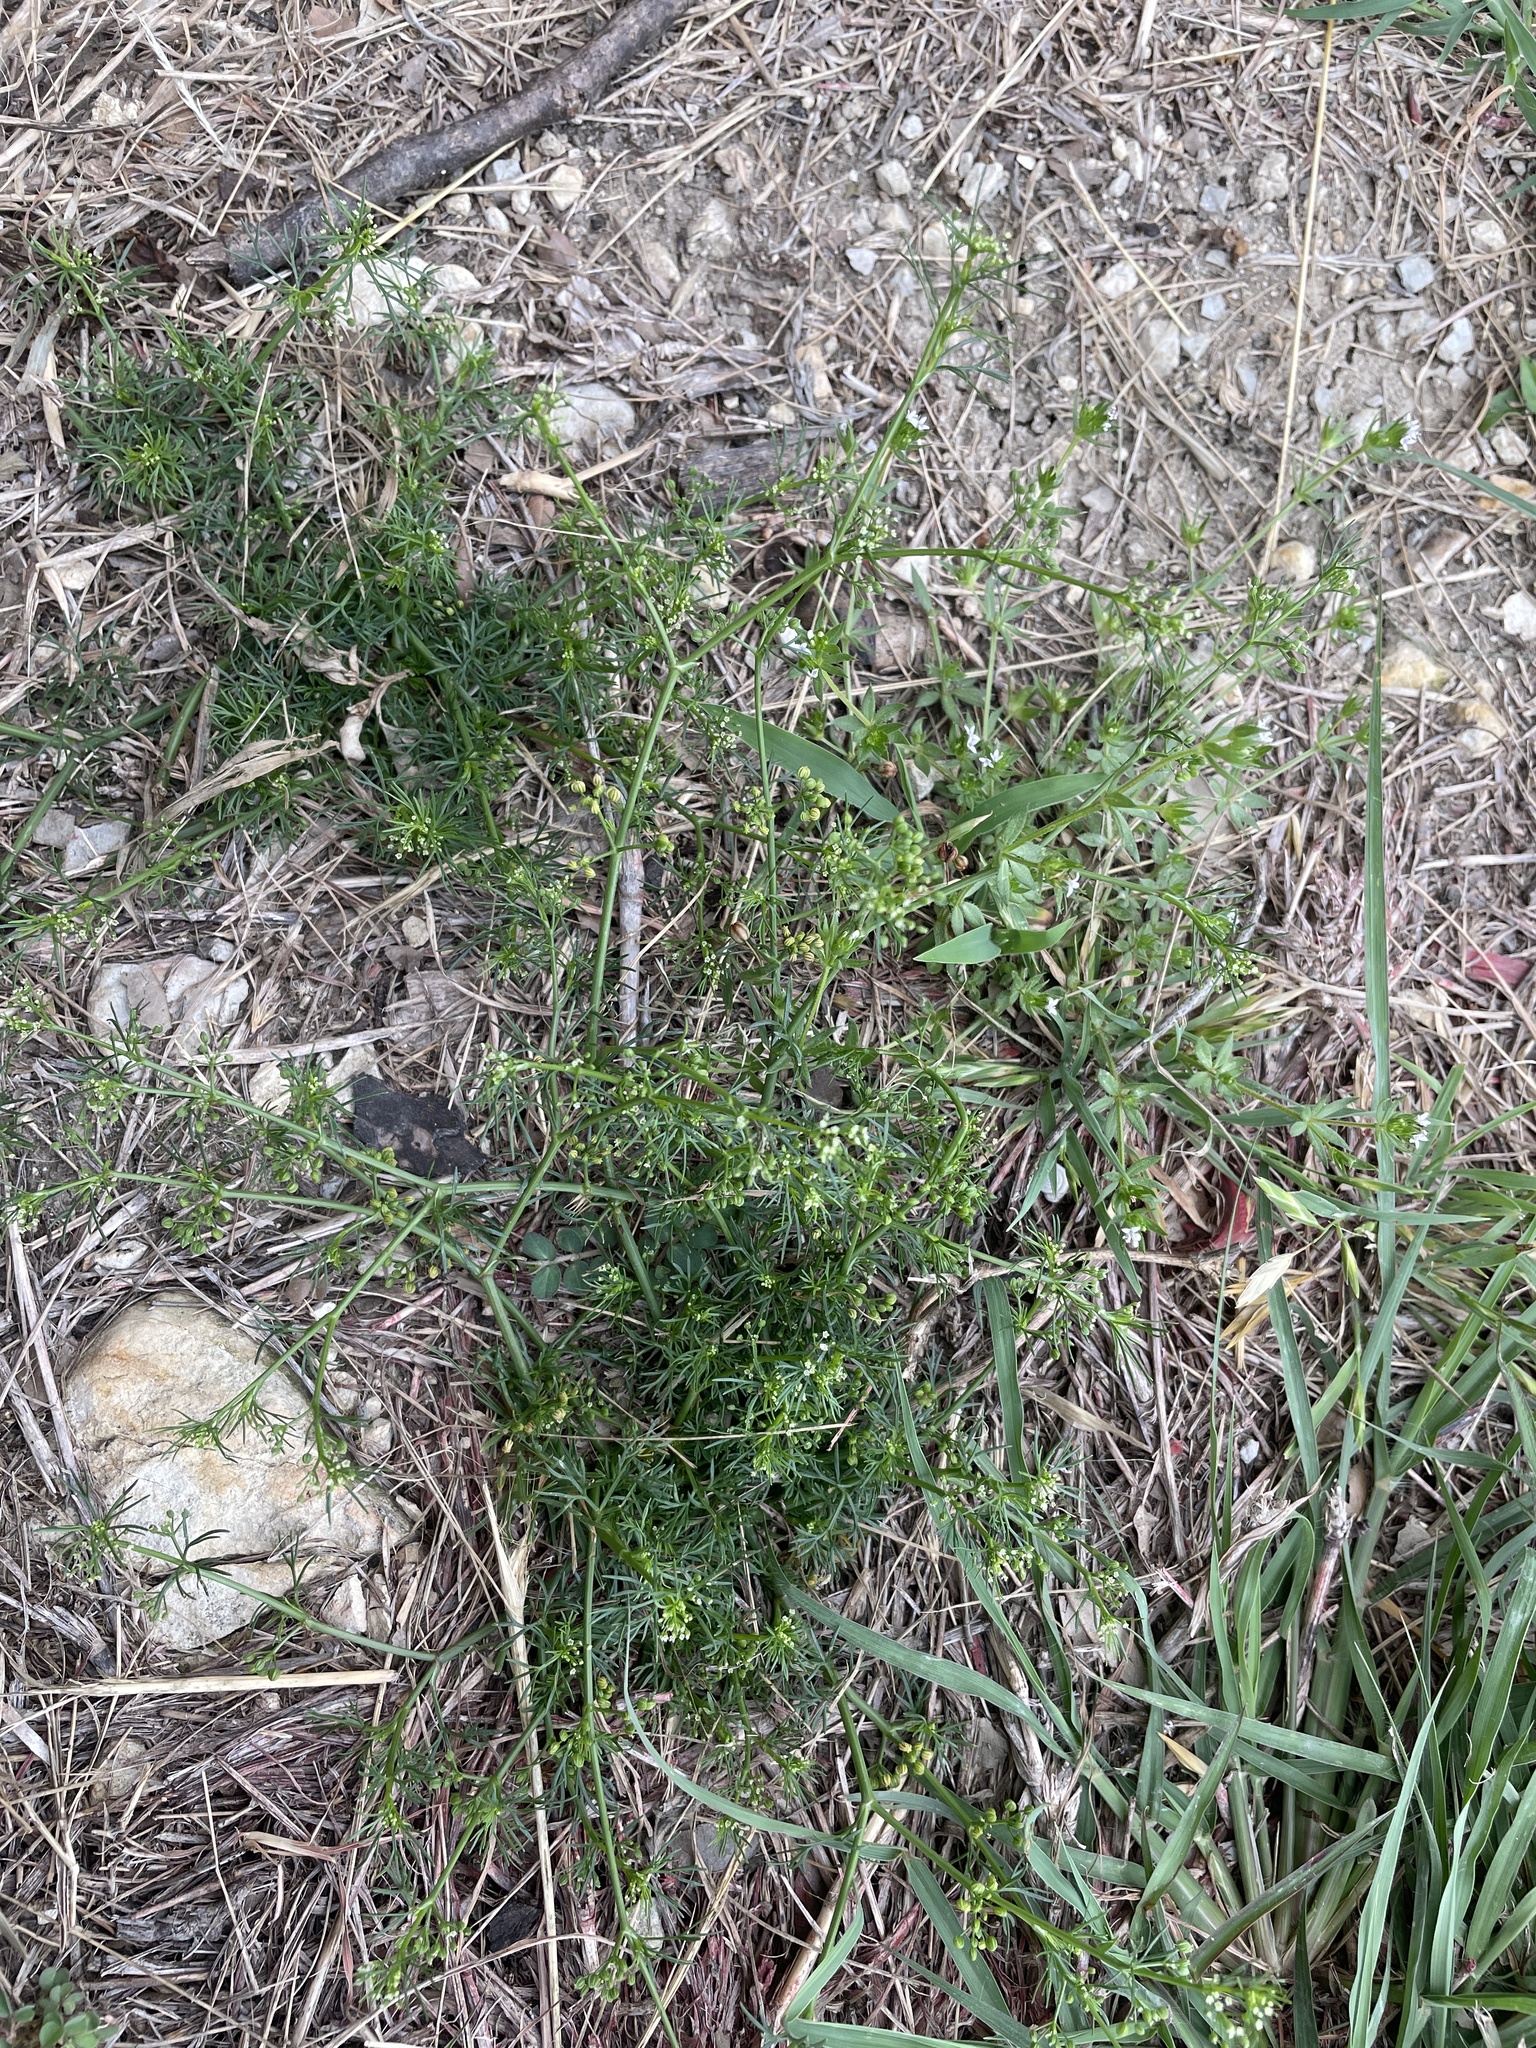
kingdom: Plantae
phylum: Tracheophyta
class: Magnoliopsida
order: Apiales
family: Apiaceae
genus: Cyclospermum
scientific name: Cyclospermum leptophyllum
